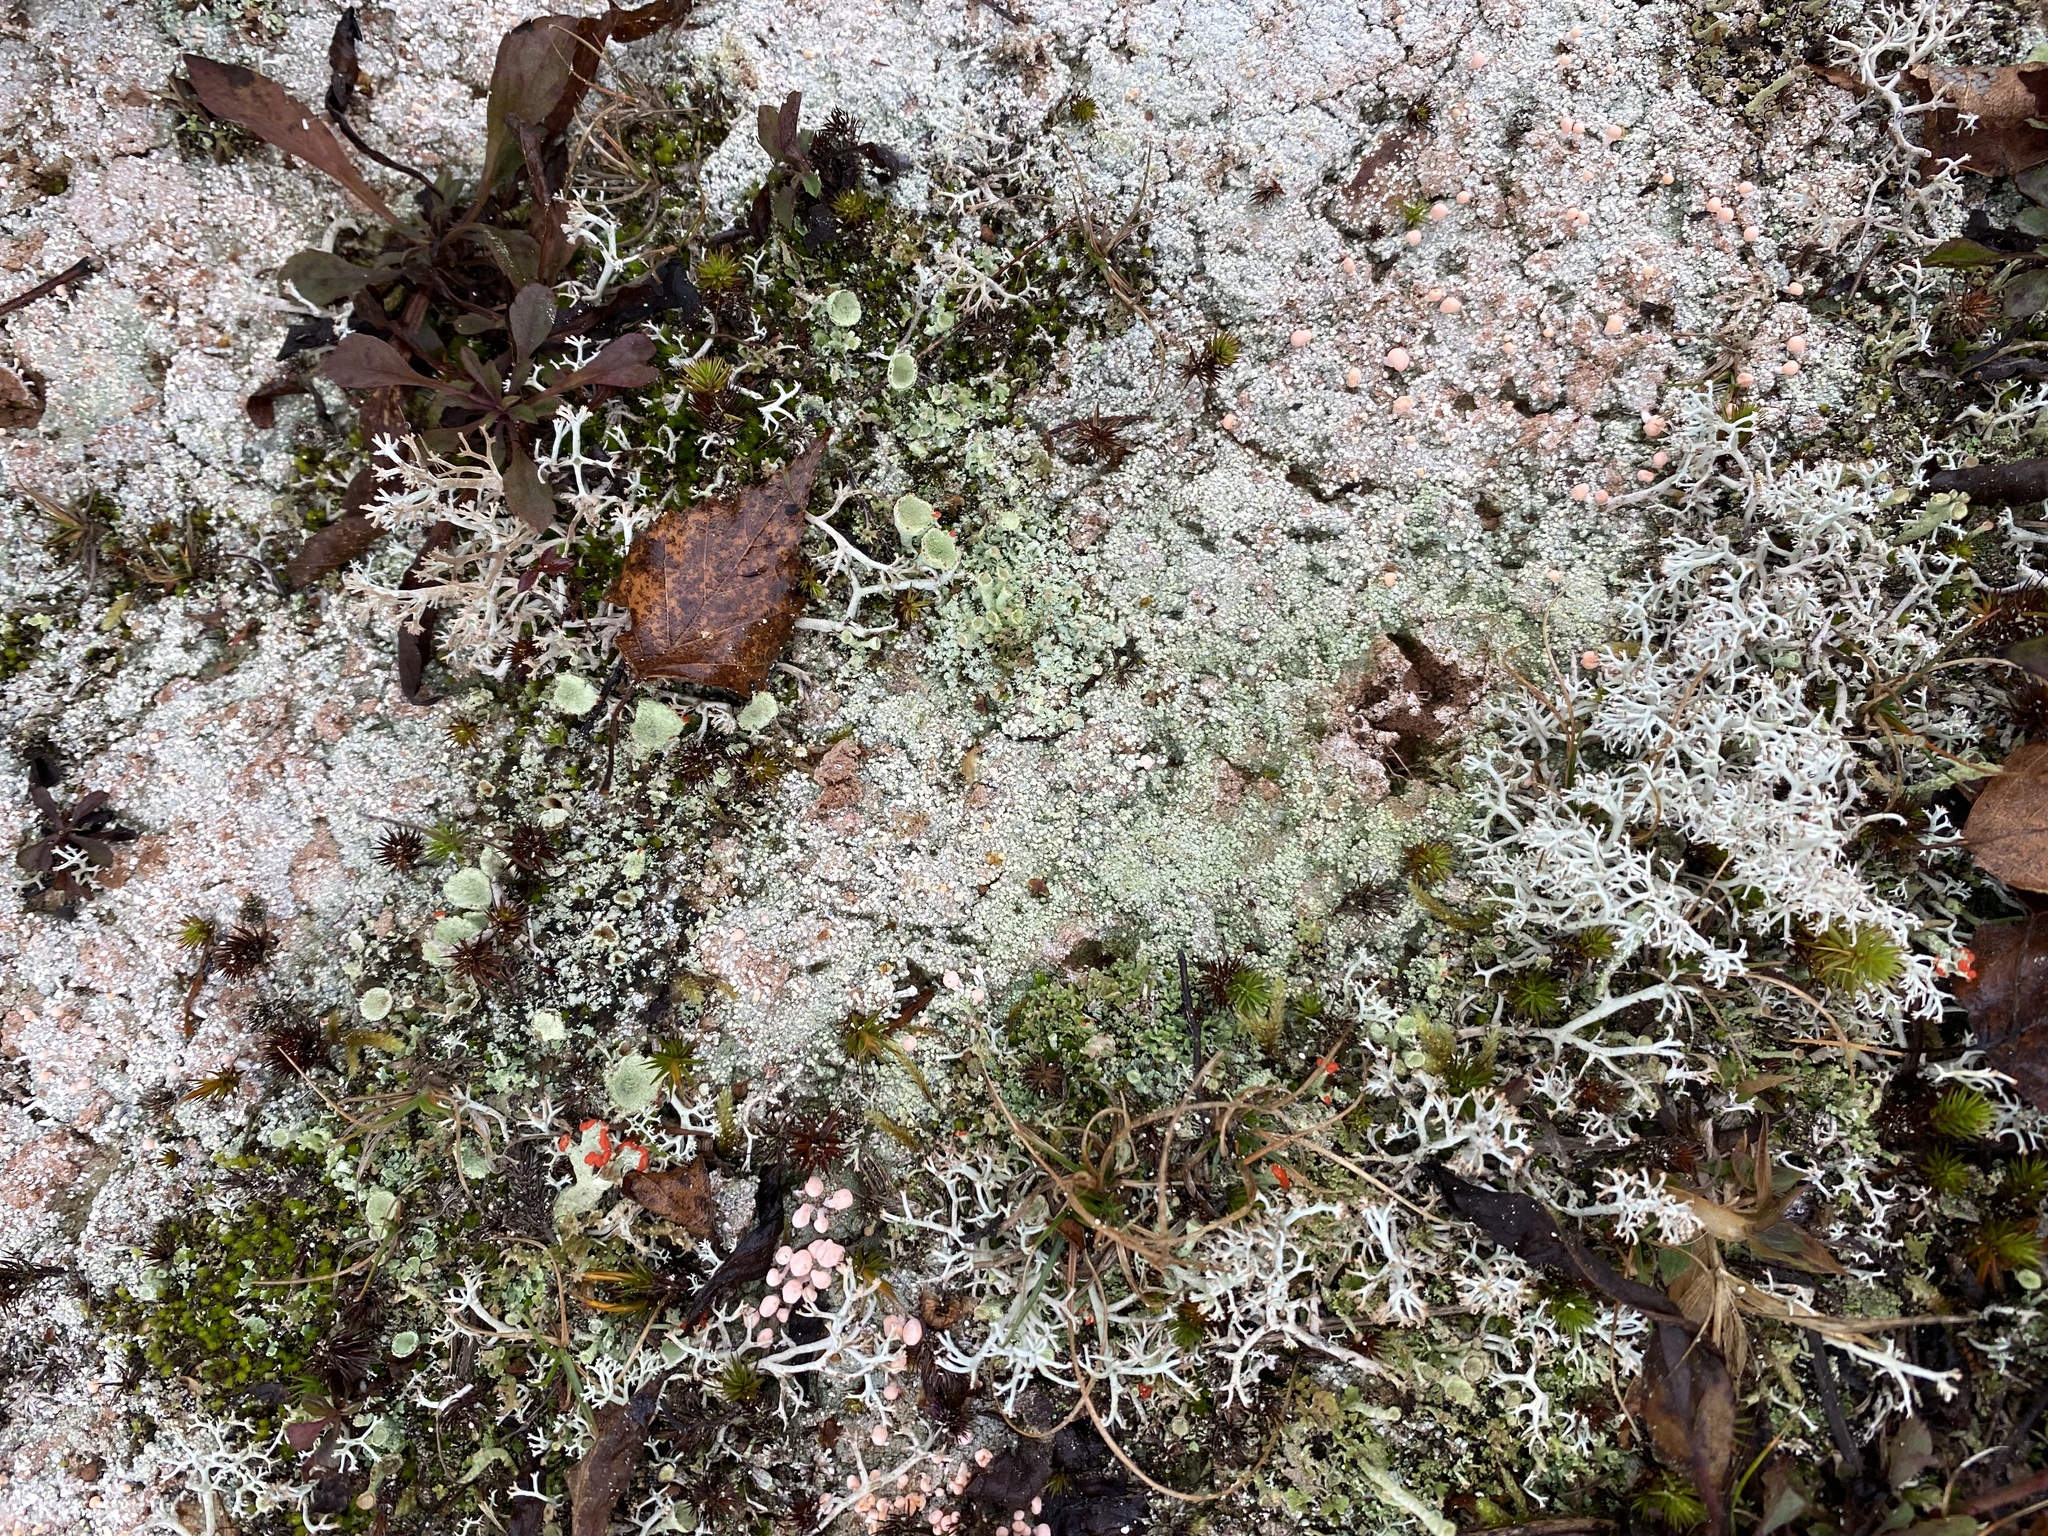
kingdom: Fungi
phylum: Ascomycota
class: Lecanoromycetes
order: Pertusariales
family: Icmadophilaceae
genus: Dibaeis
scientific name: Dibaeis baeomyces
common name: Pink earth lichen
